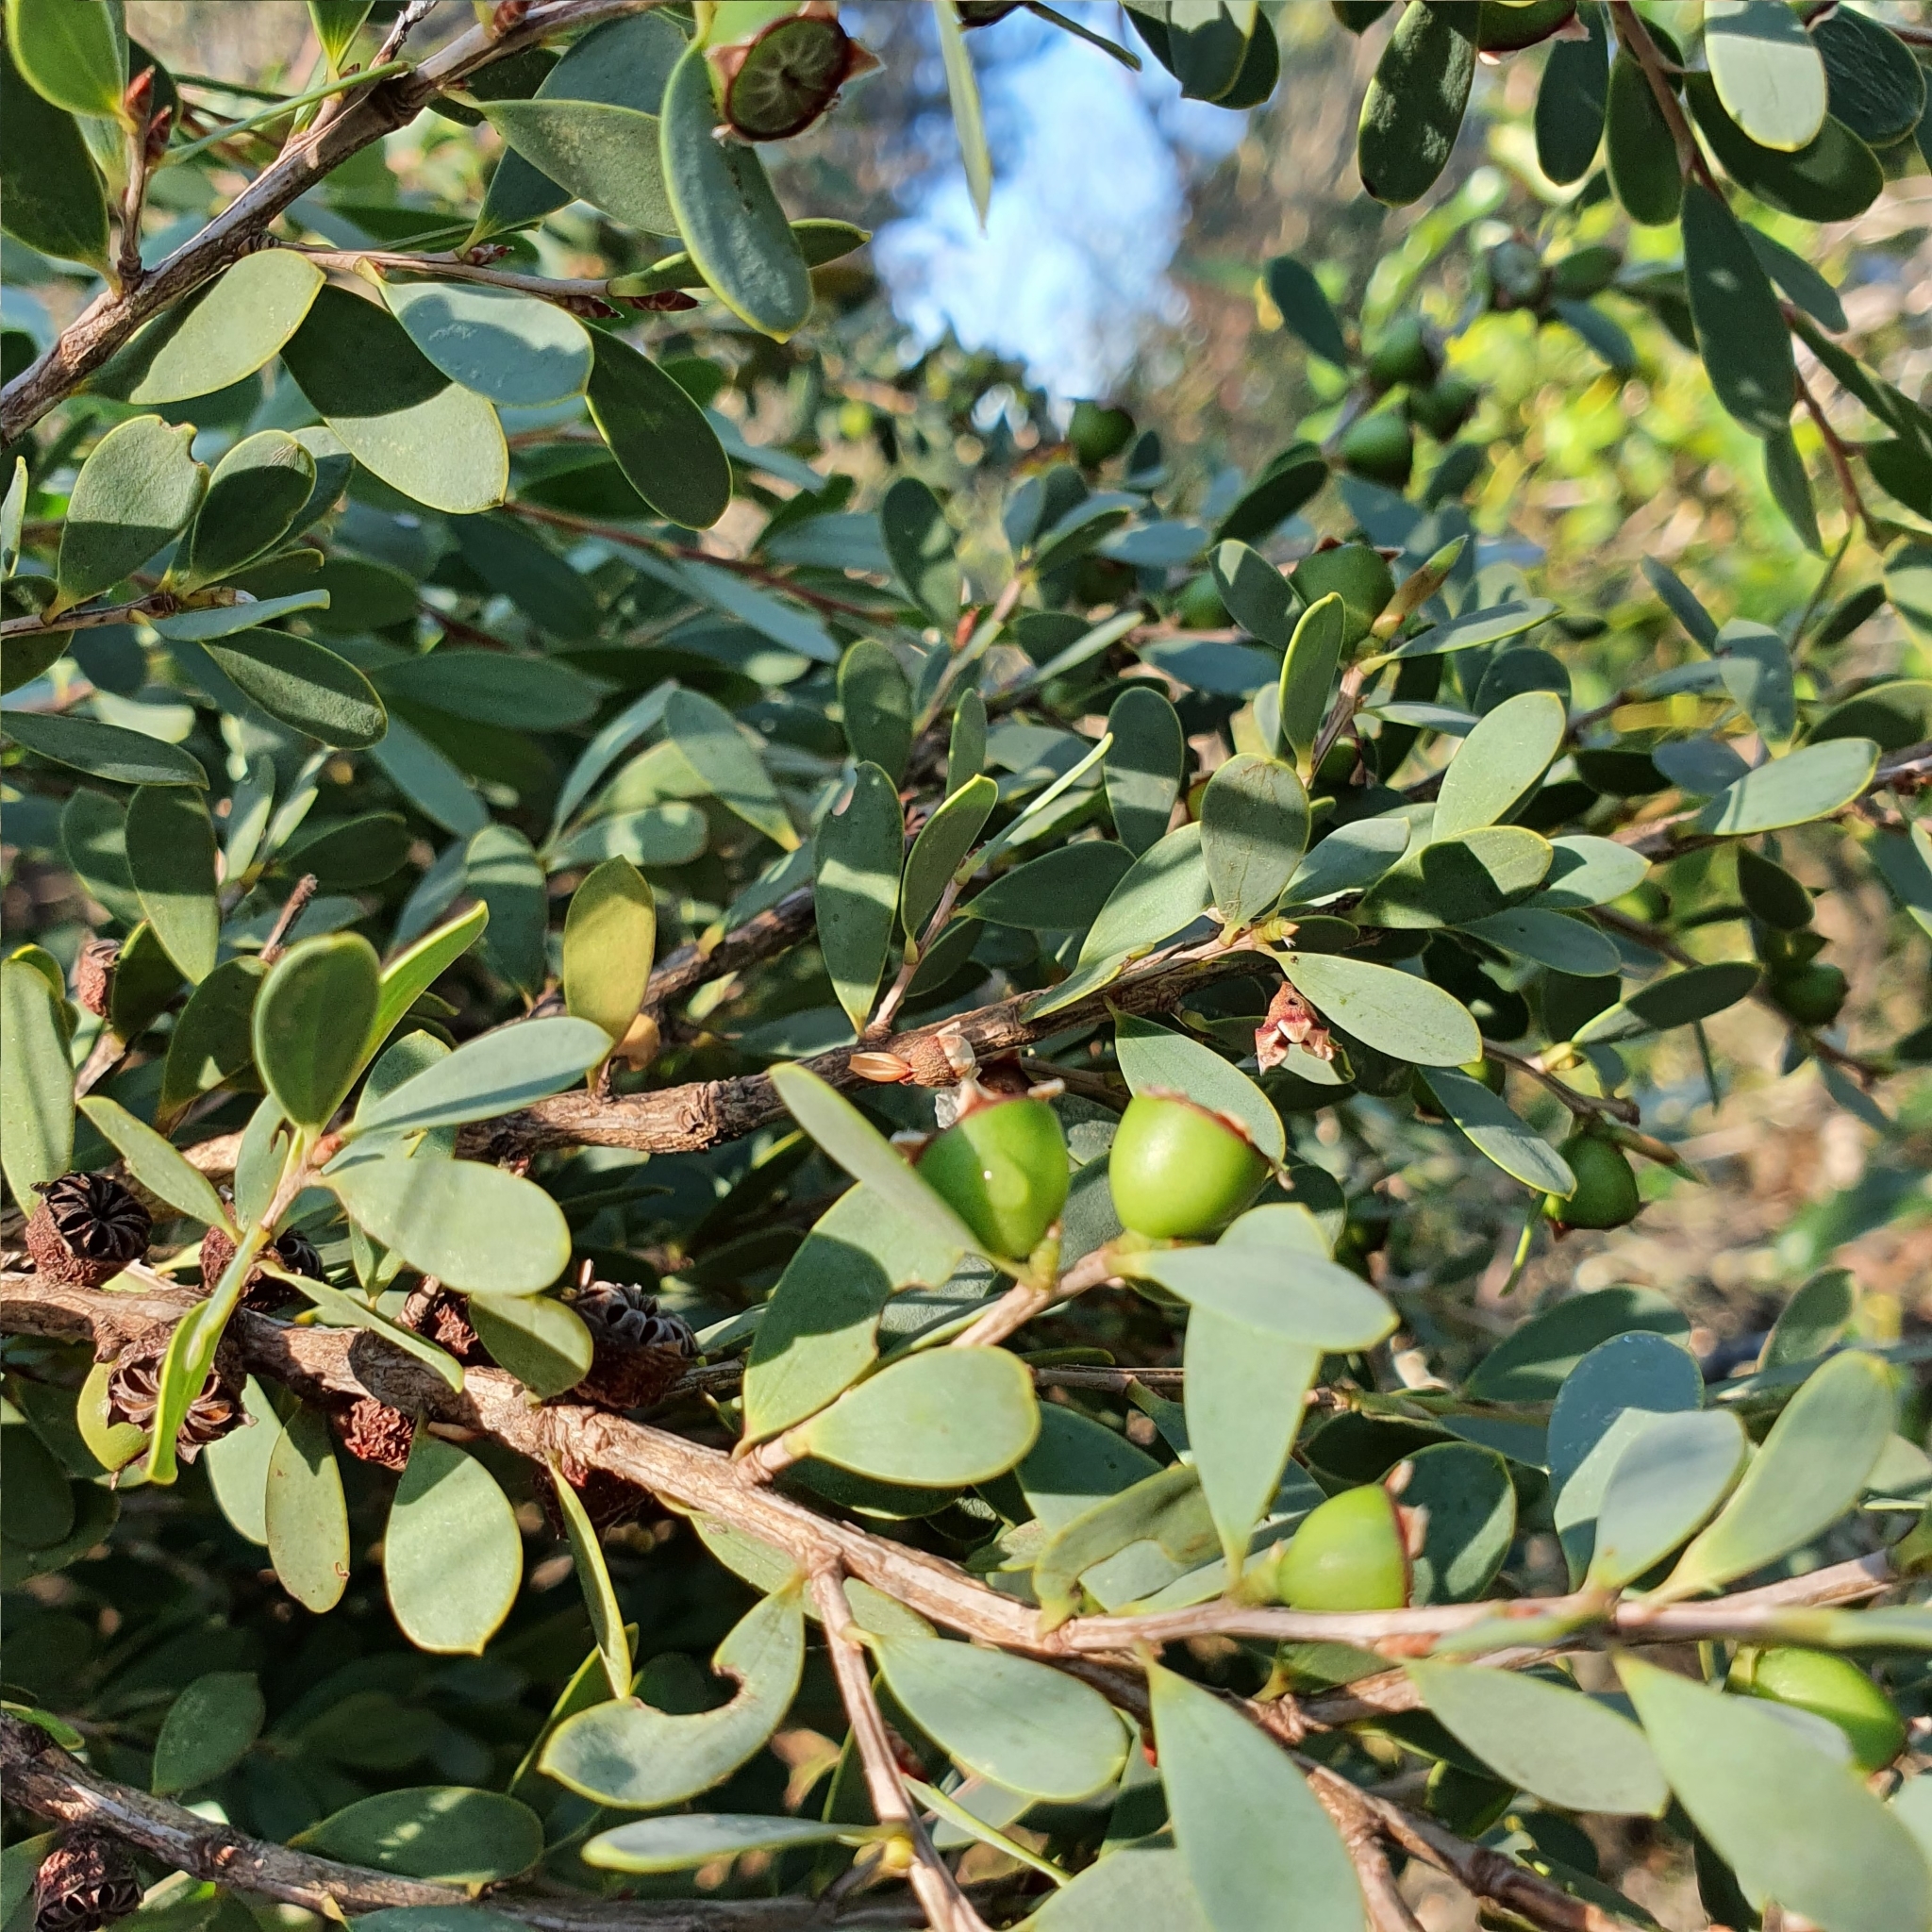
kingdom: Plantae
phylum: Tracheophyta
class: Magnoliopsida
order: Myrtales
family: Myrtaceae
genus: Leptospermum
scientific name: Leptospermum laevigatum
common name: Australian teatree
